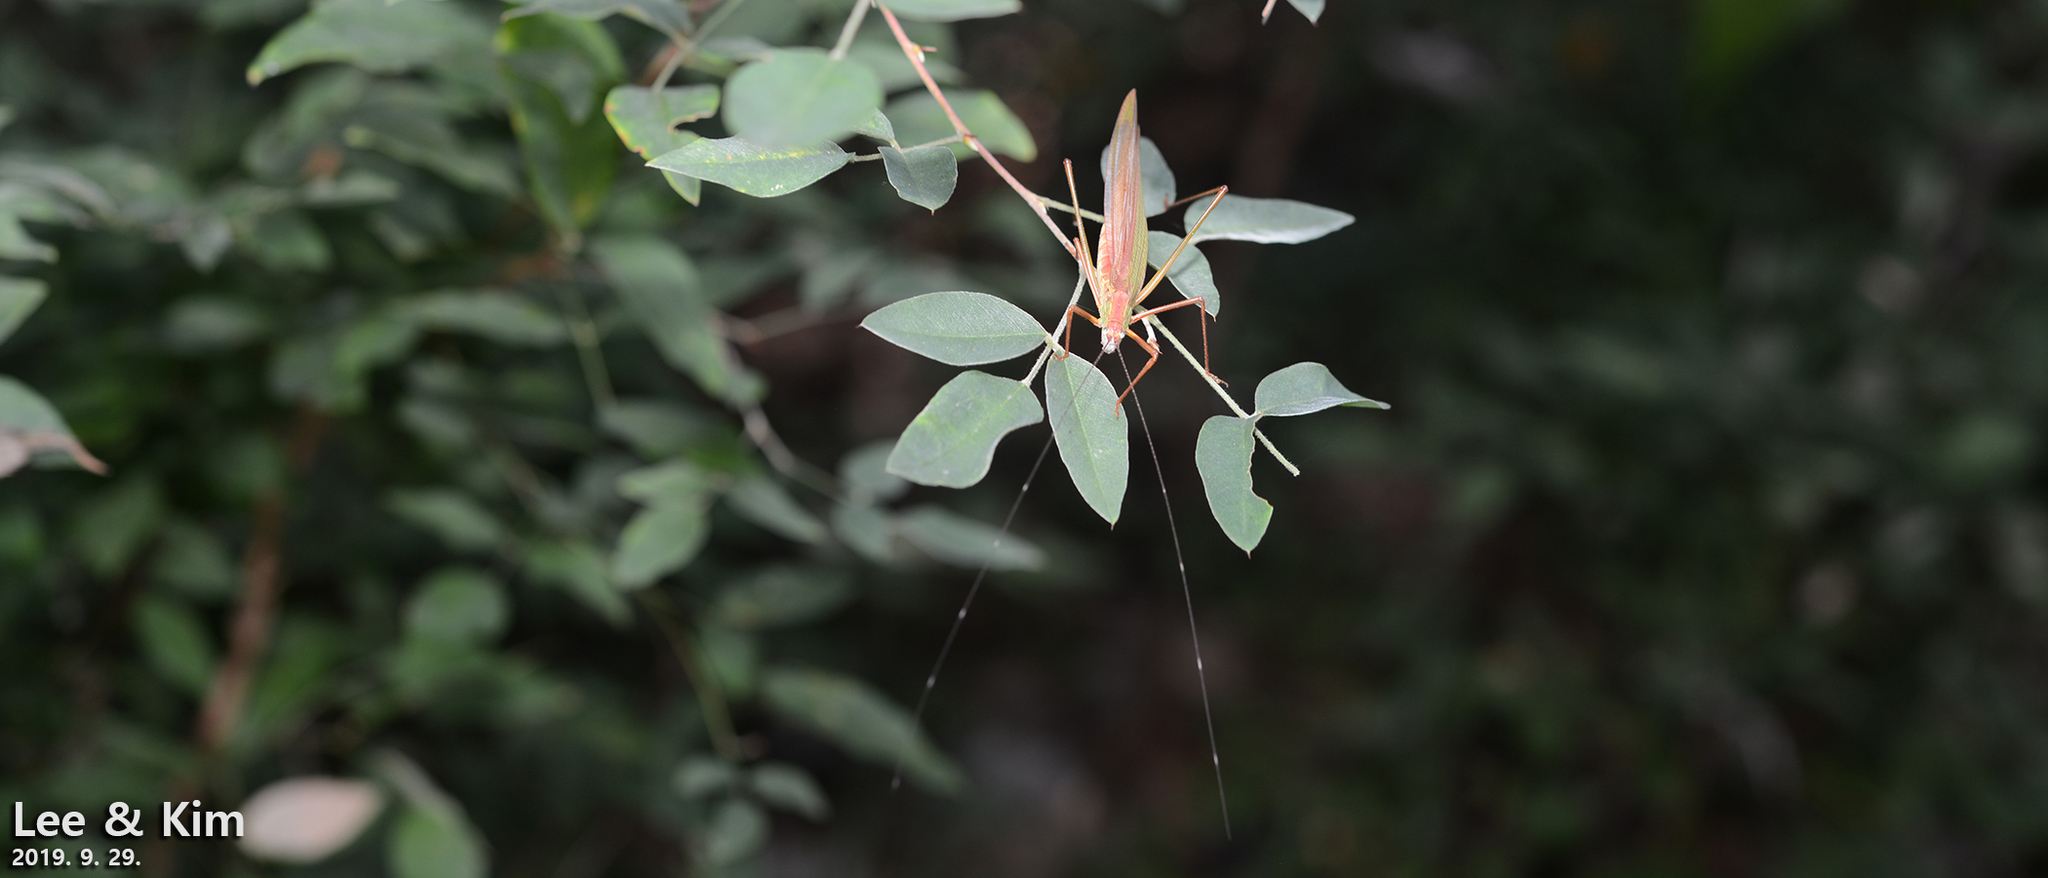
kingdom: Animalia
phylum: Arthropoda
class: Insecta
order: Orthoptera
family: Tettigoniidae
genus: Elimaea
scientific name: Elimaea fallax
